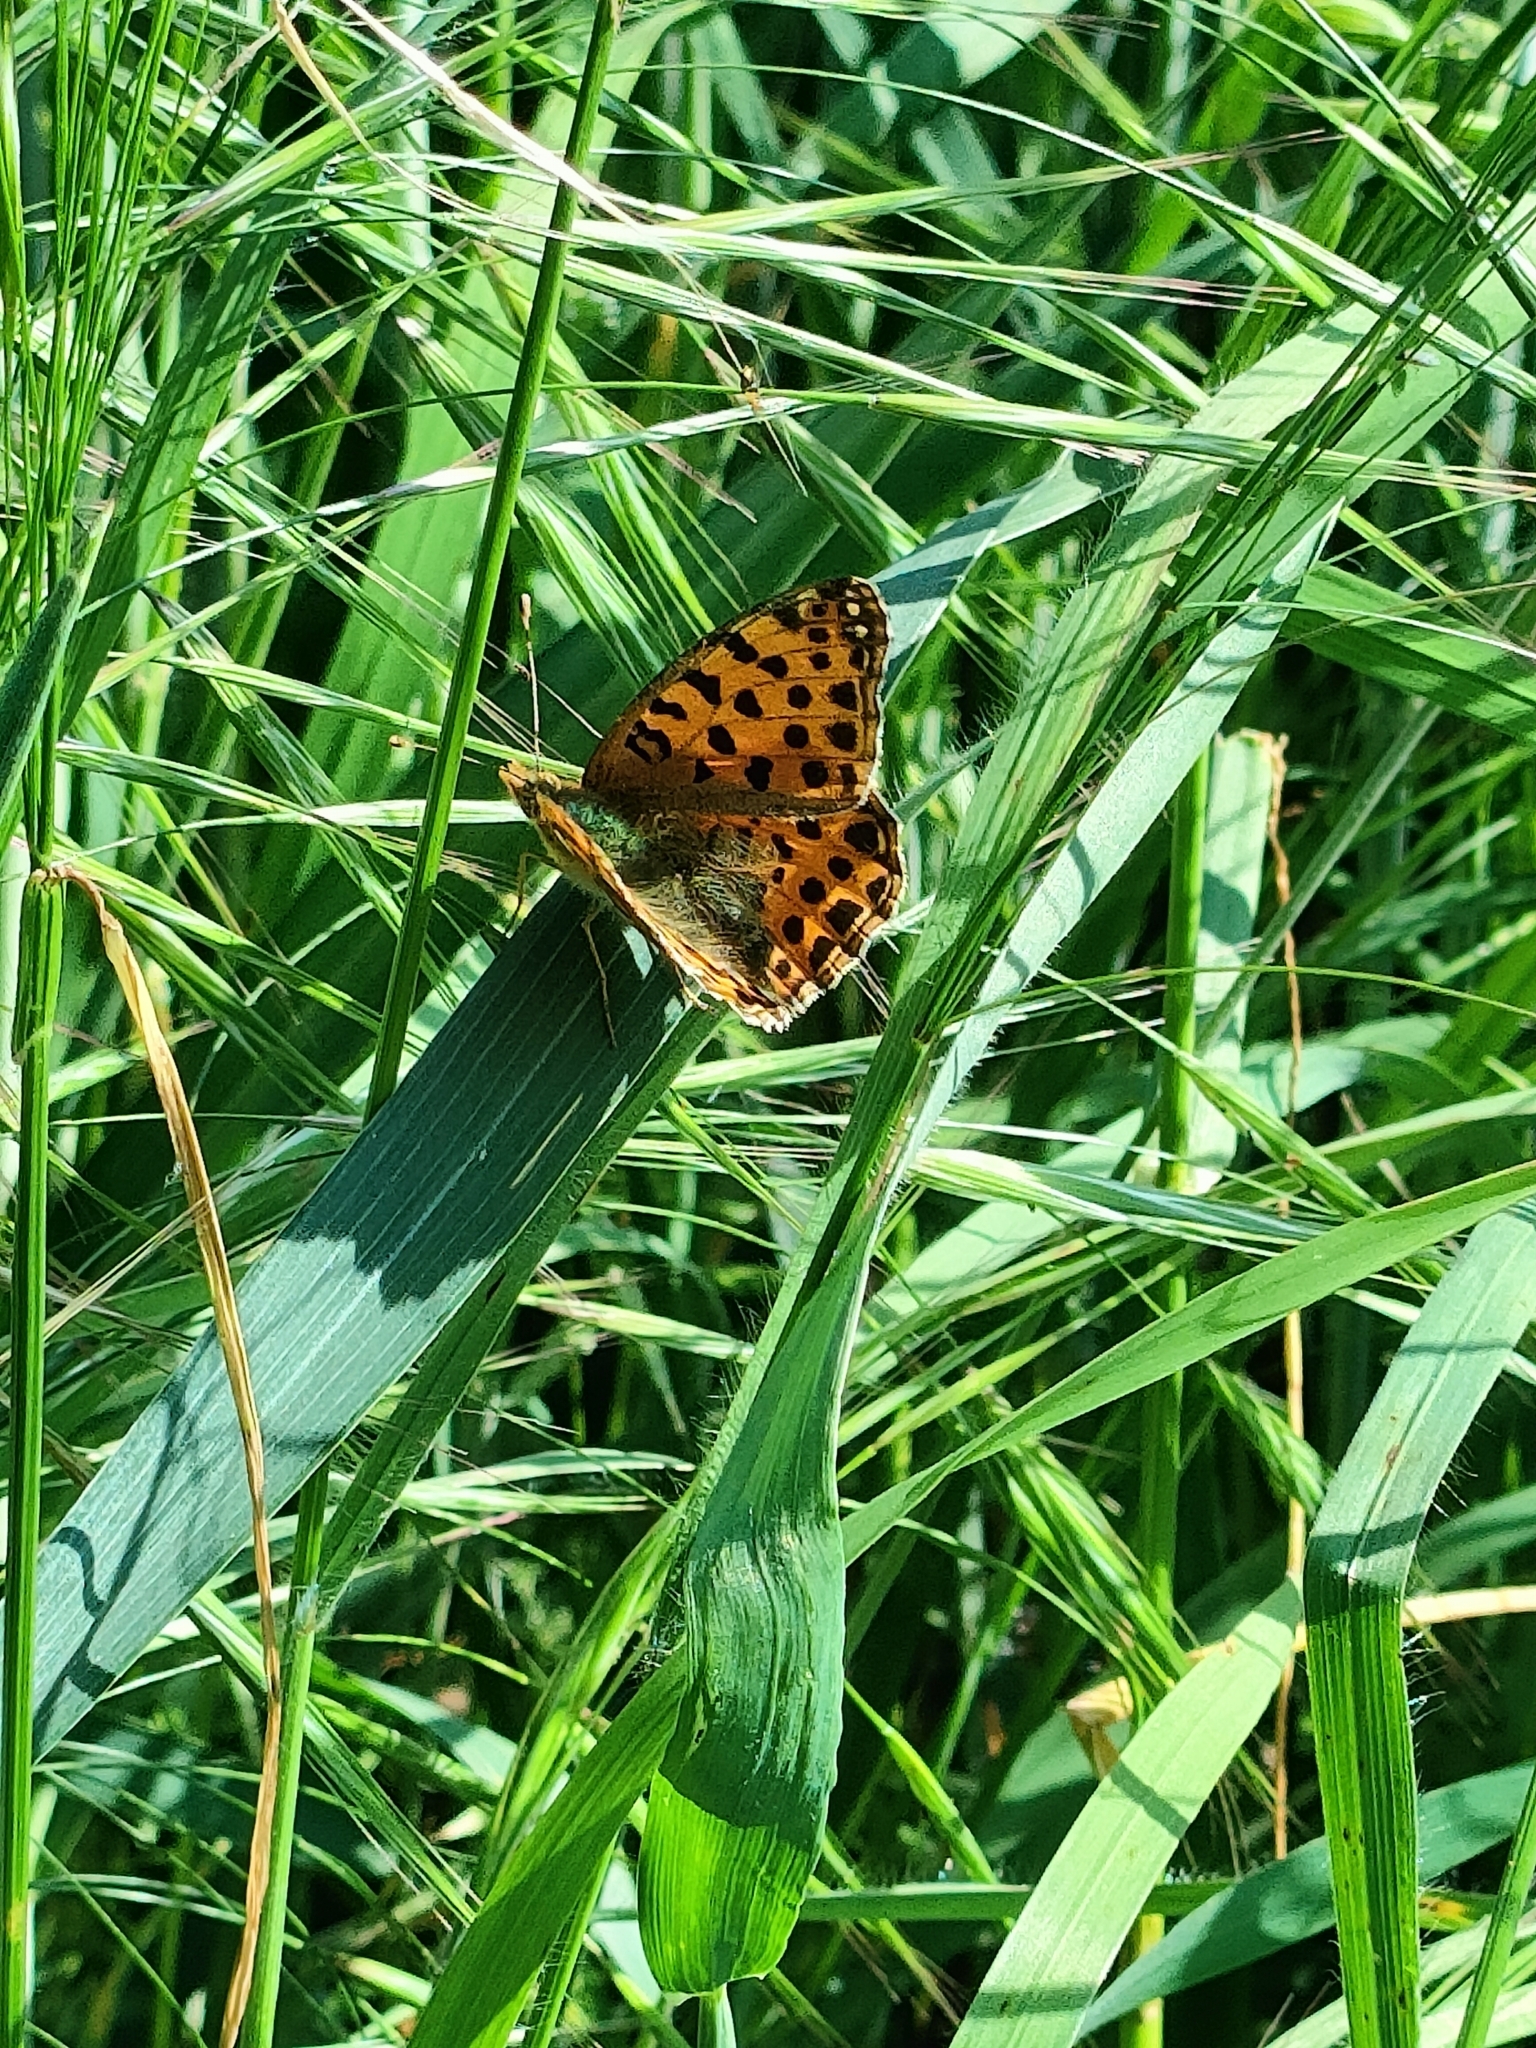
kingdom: Animalia
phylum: Arthropoda
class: Insecta
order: Lepidoptera
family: Nymphalidae
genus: Issoria
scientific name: Issoria lathonia
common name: Queen of spain fritillary
